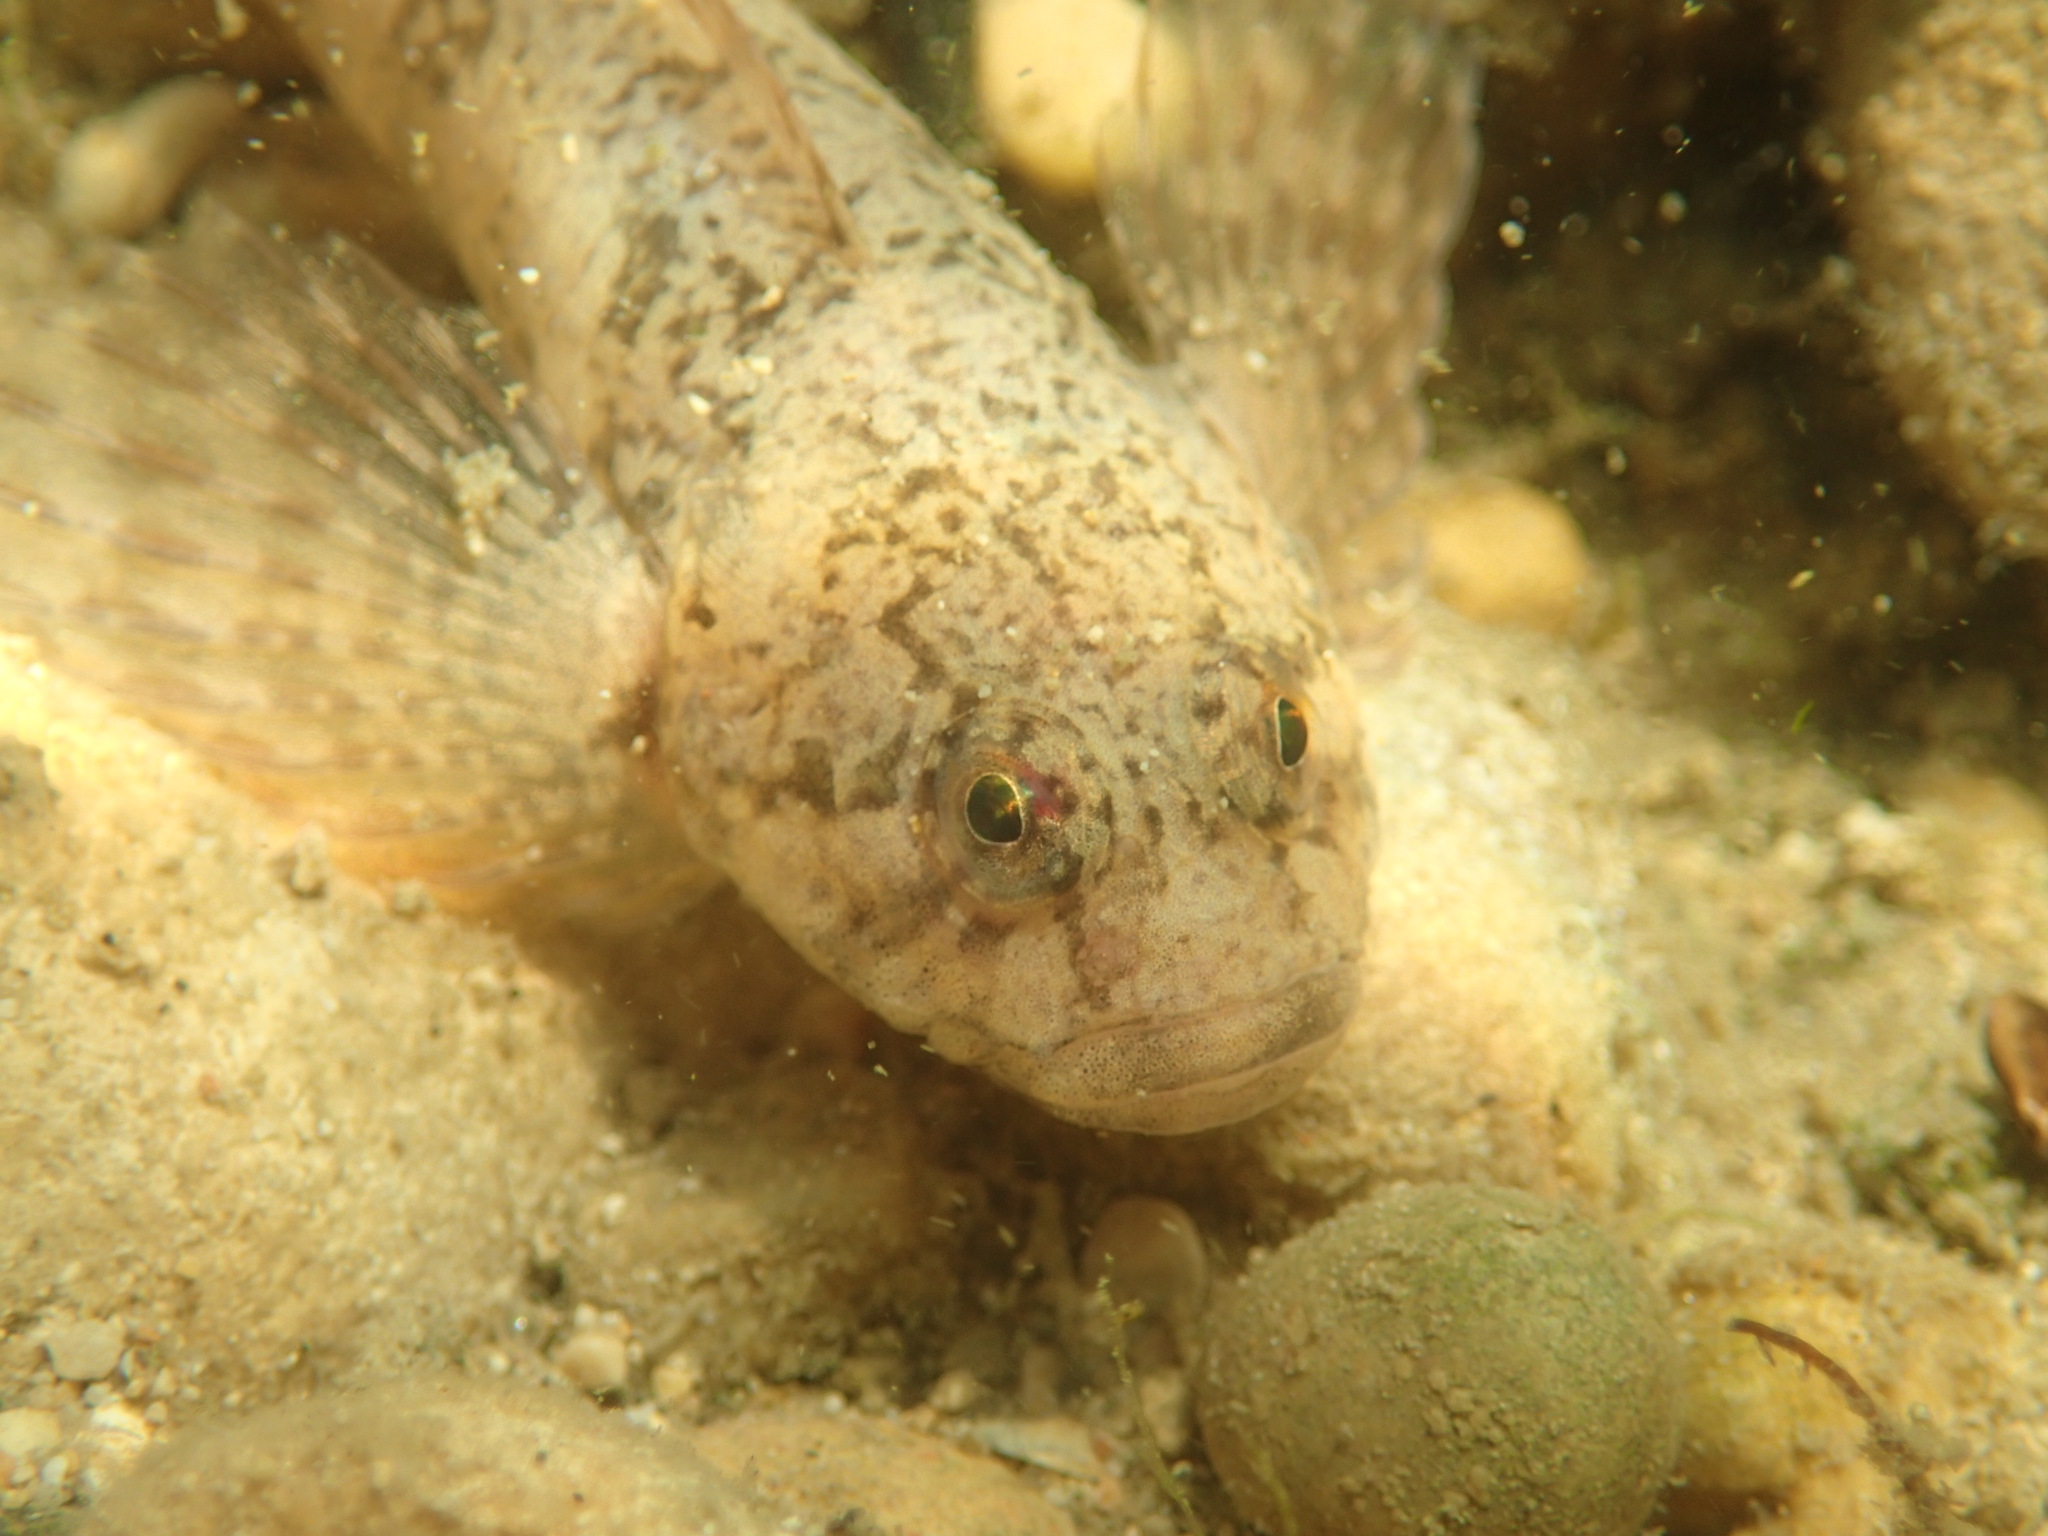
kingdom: Animalia
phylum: Chordata
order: Scorpaeniformes
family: Cottidae
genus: Cottus
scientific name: Cottus gobio
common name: Bullhead
